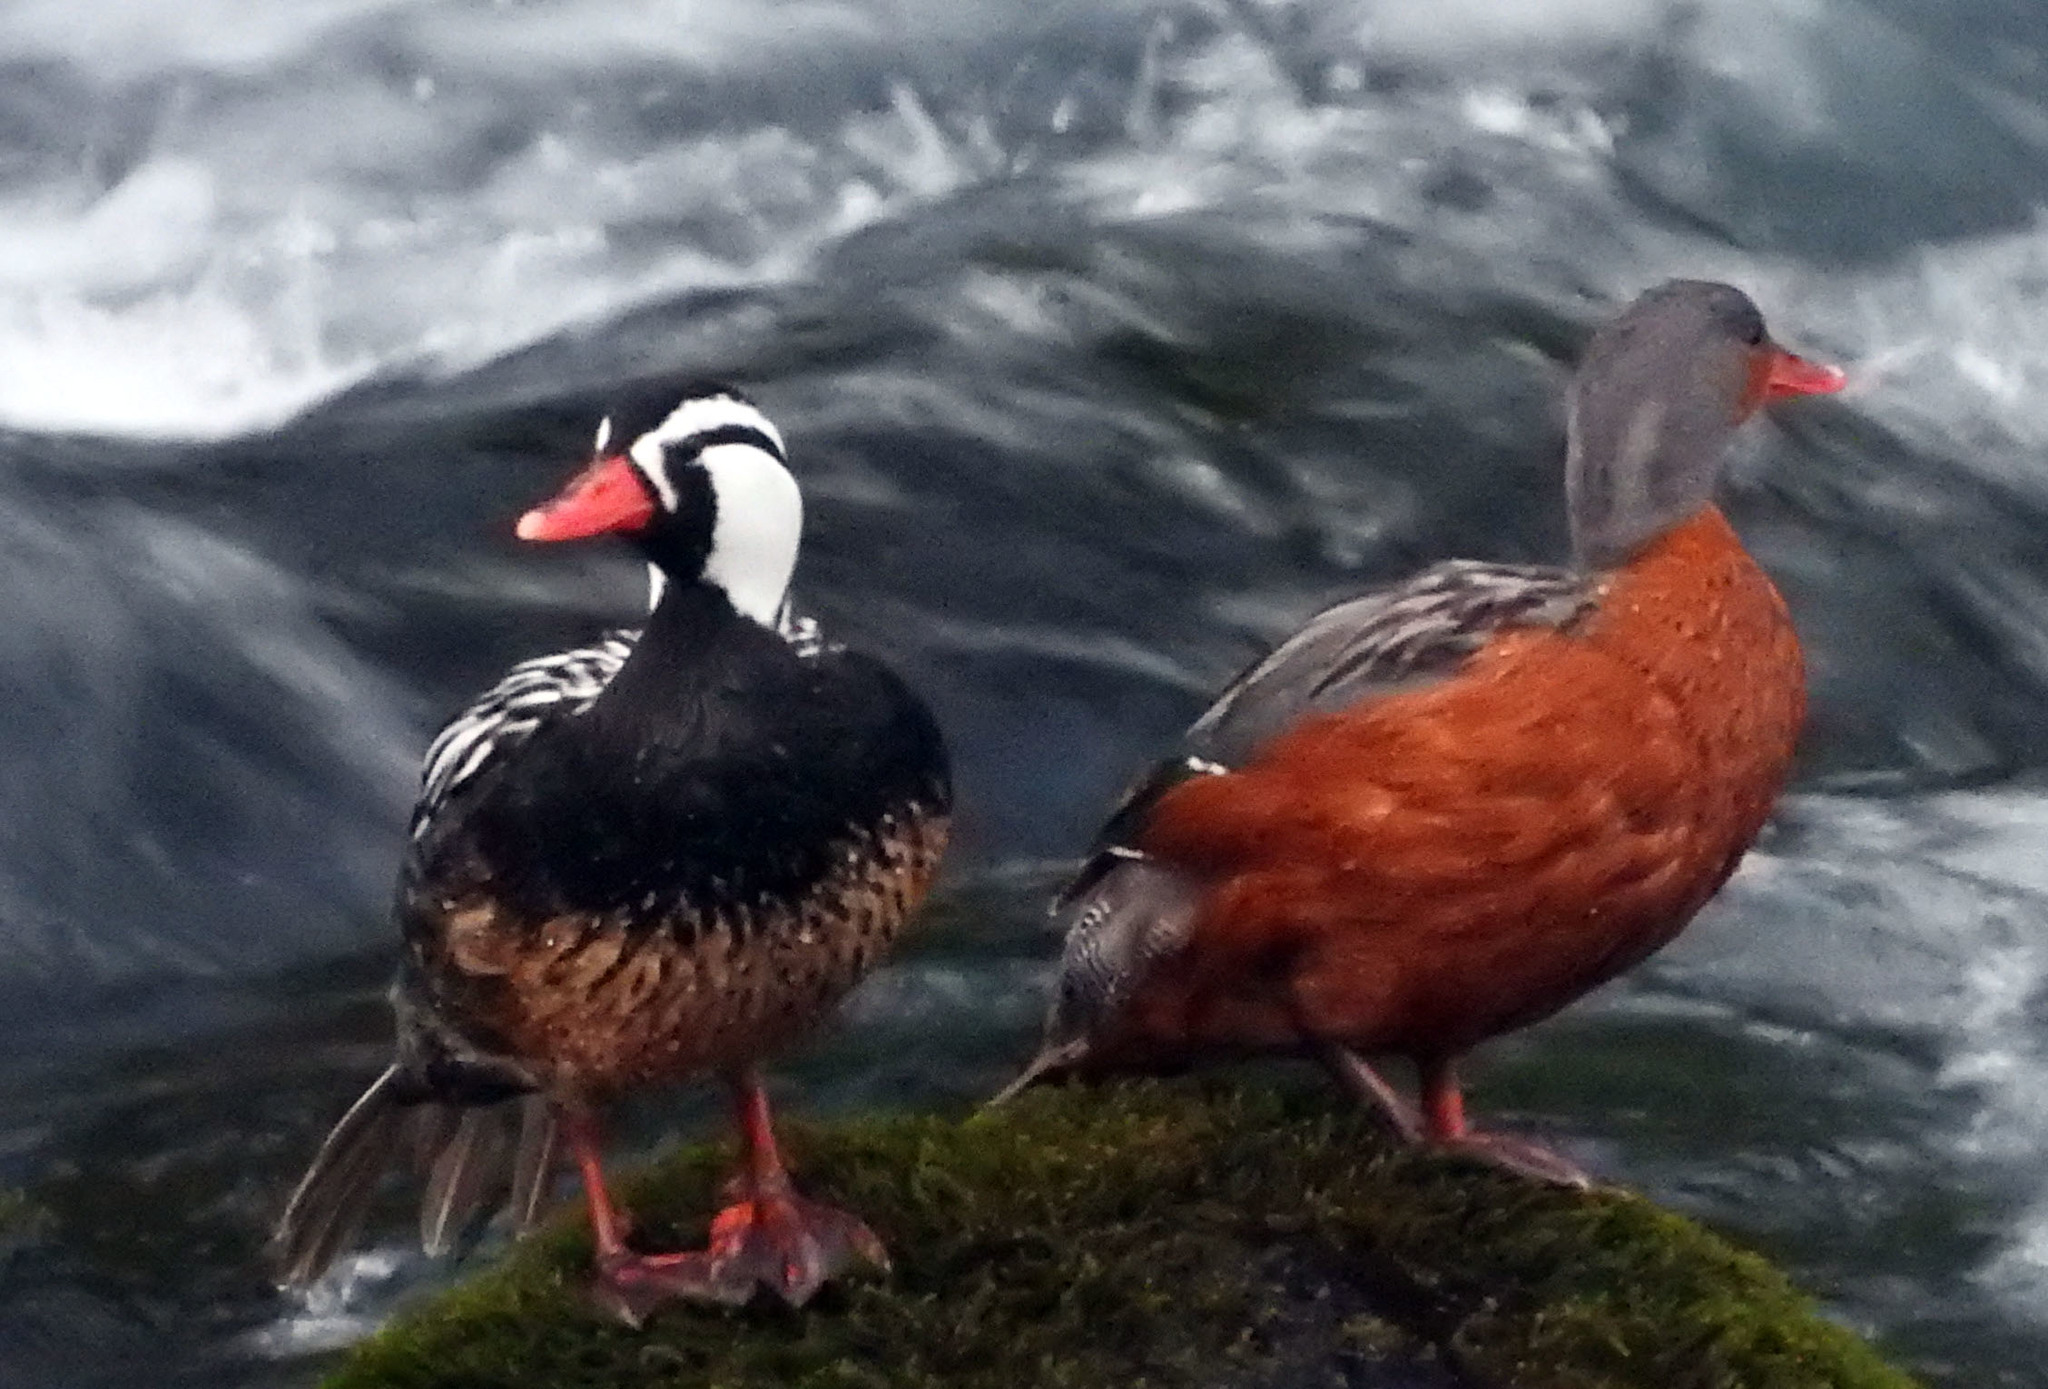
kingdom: Animalia
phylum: Chordata
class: Aves
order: Anseriformes
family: Anatidae
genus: Merganetta
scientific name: Merganetta armata
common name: Torrent duck
